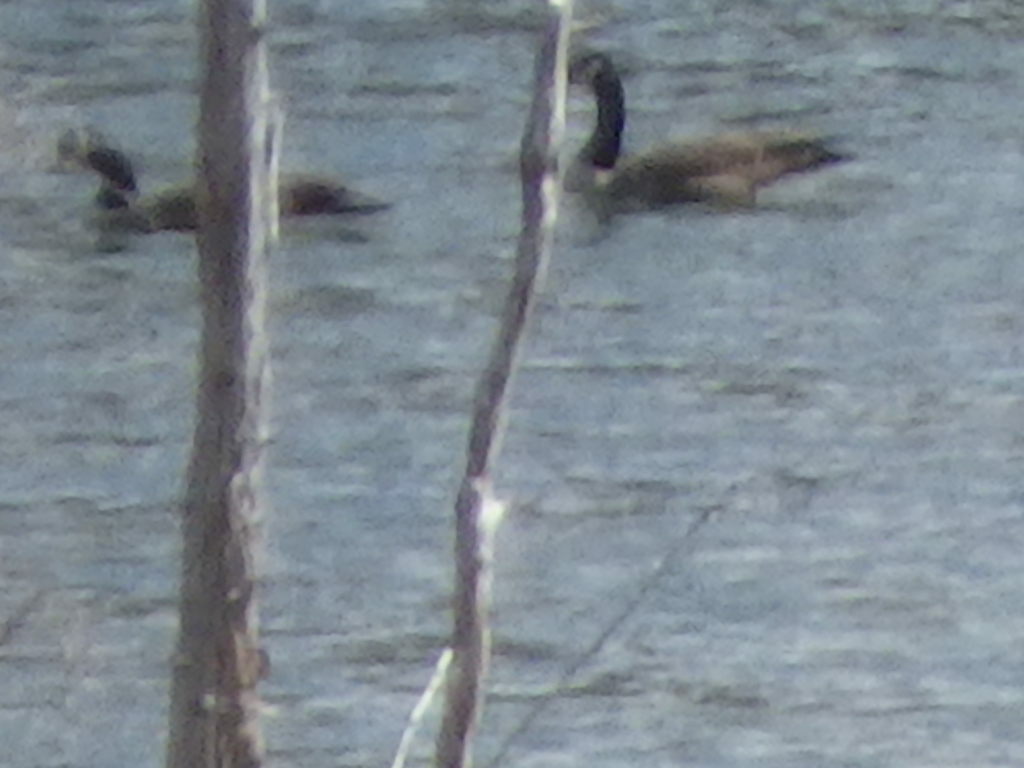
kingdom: Animalia
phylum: Chordata
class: Aves
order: Anseriformes
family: Anatidae
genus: Branta
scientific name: Branta canadensis
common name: Canada goose
